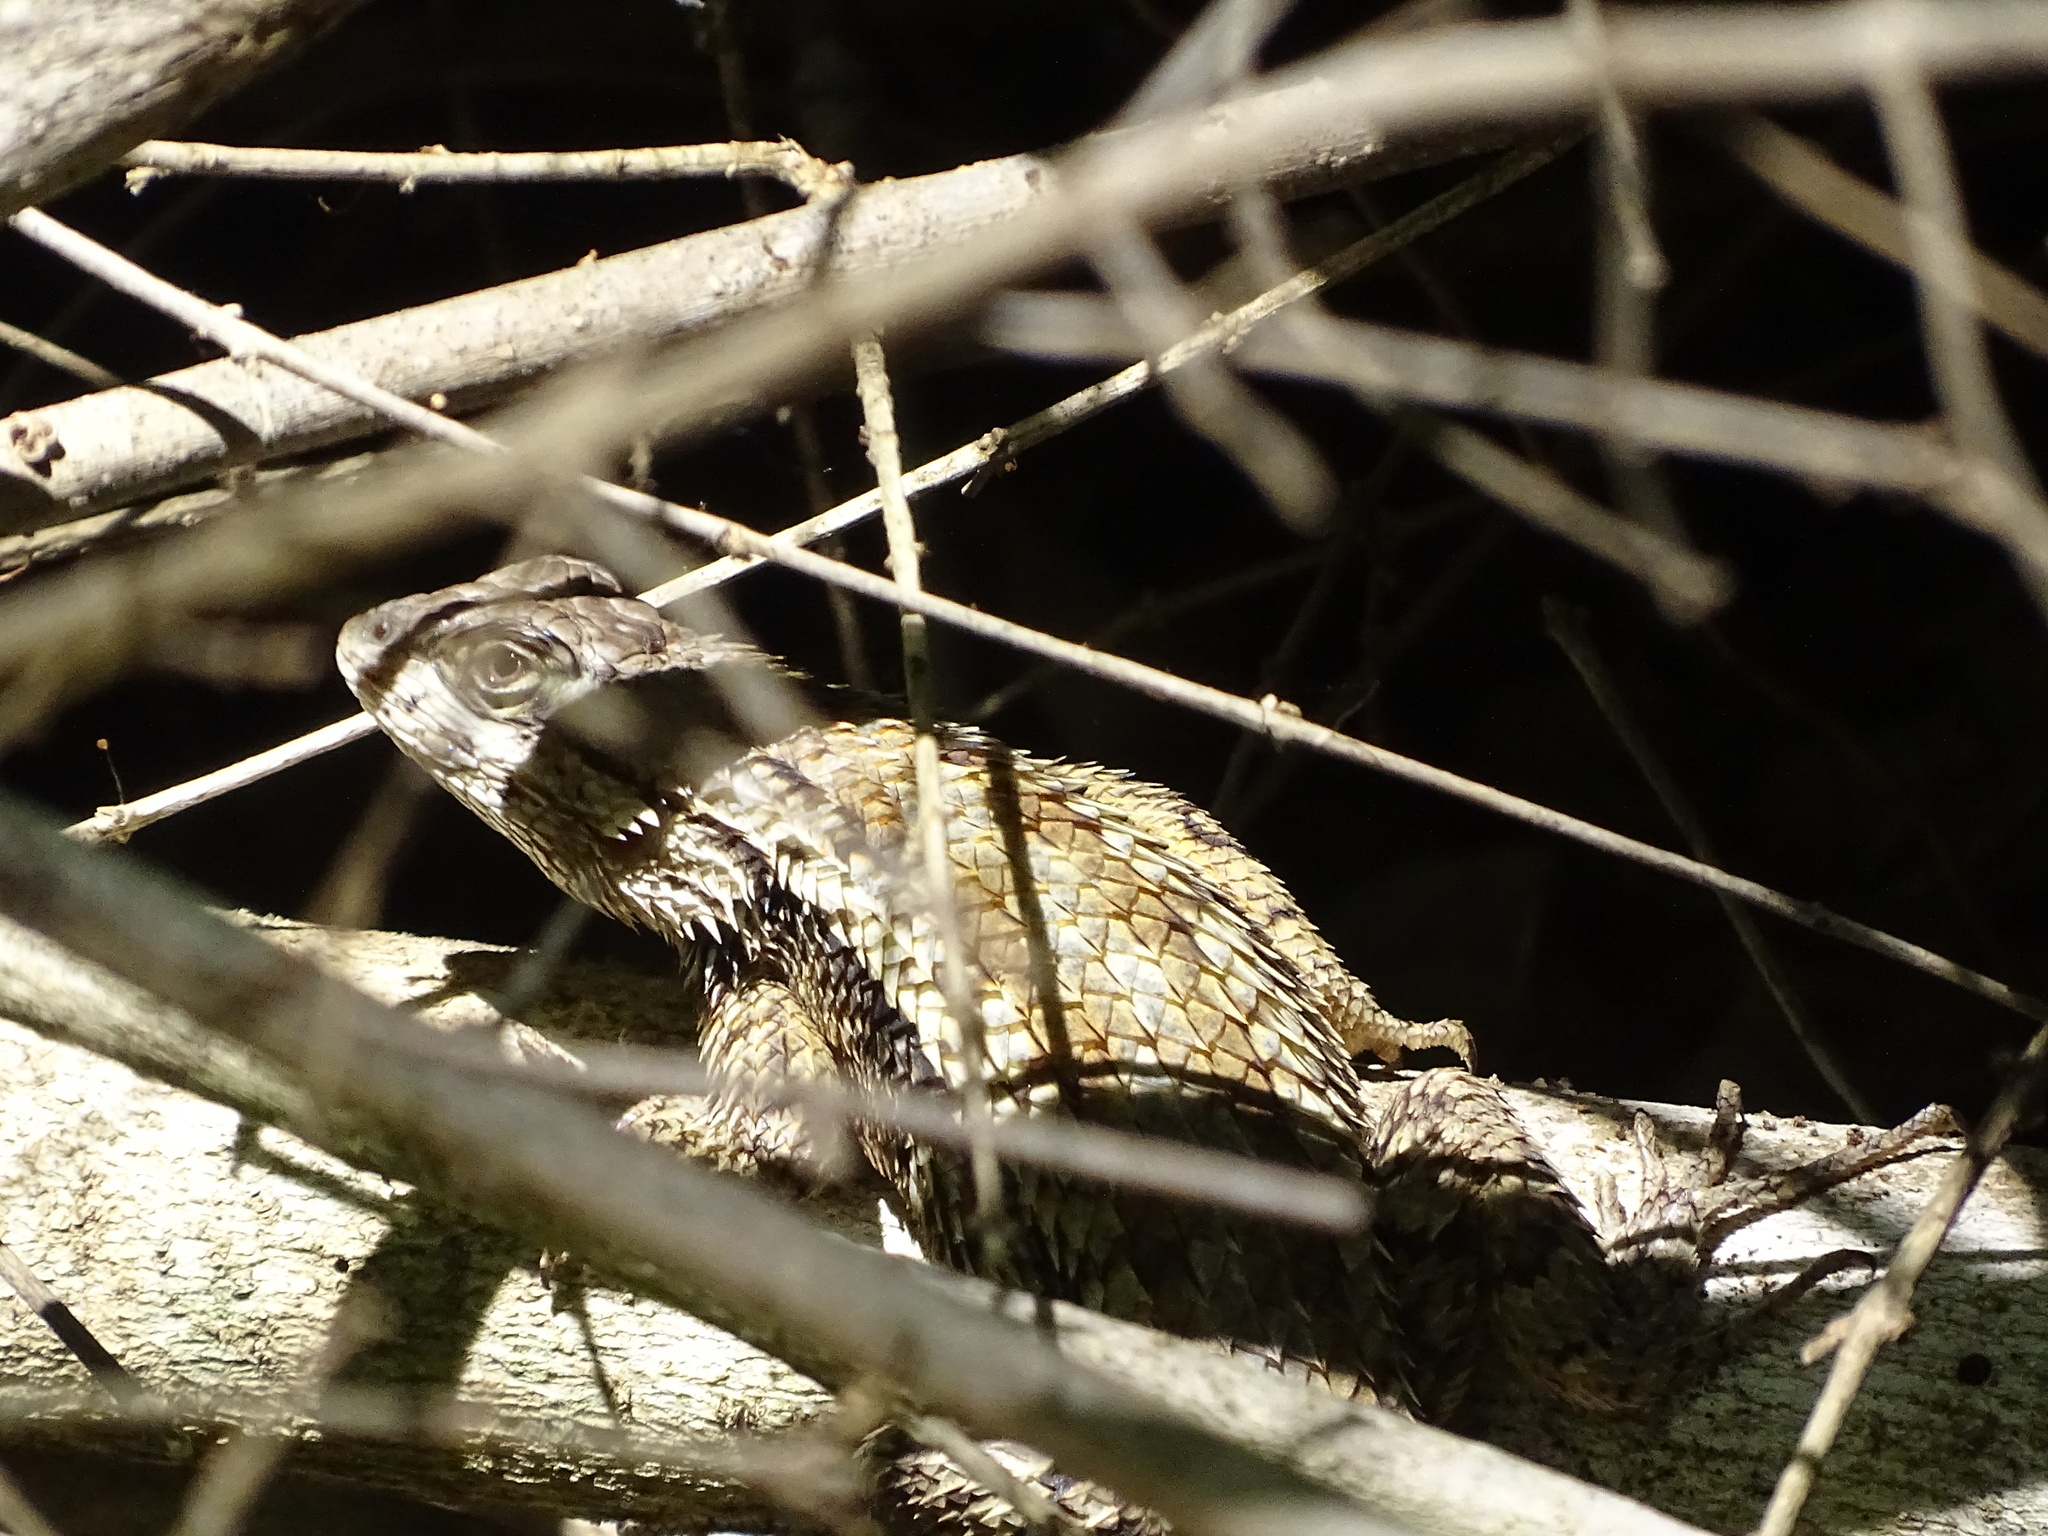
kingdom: Animalia
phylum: Chordata
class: Squamata
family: Phrynosomatidae
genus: Sceloporus
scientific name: Sceloporus olivaceus
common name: Texas spiny lizard
